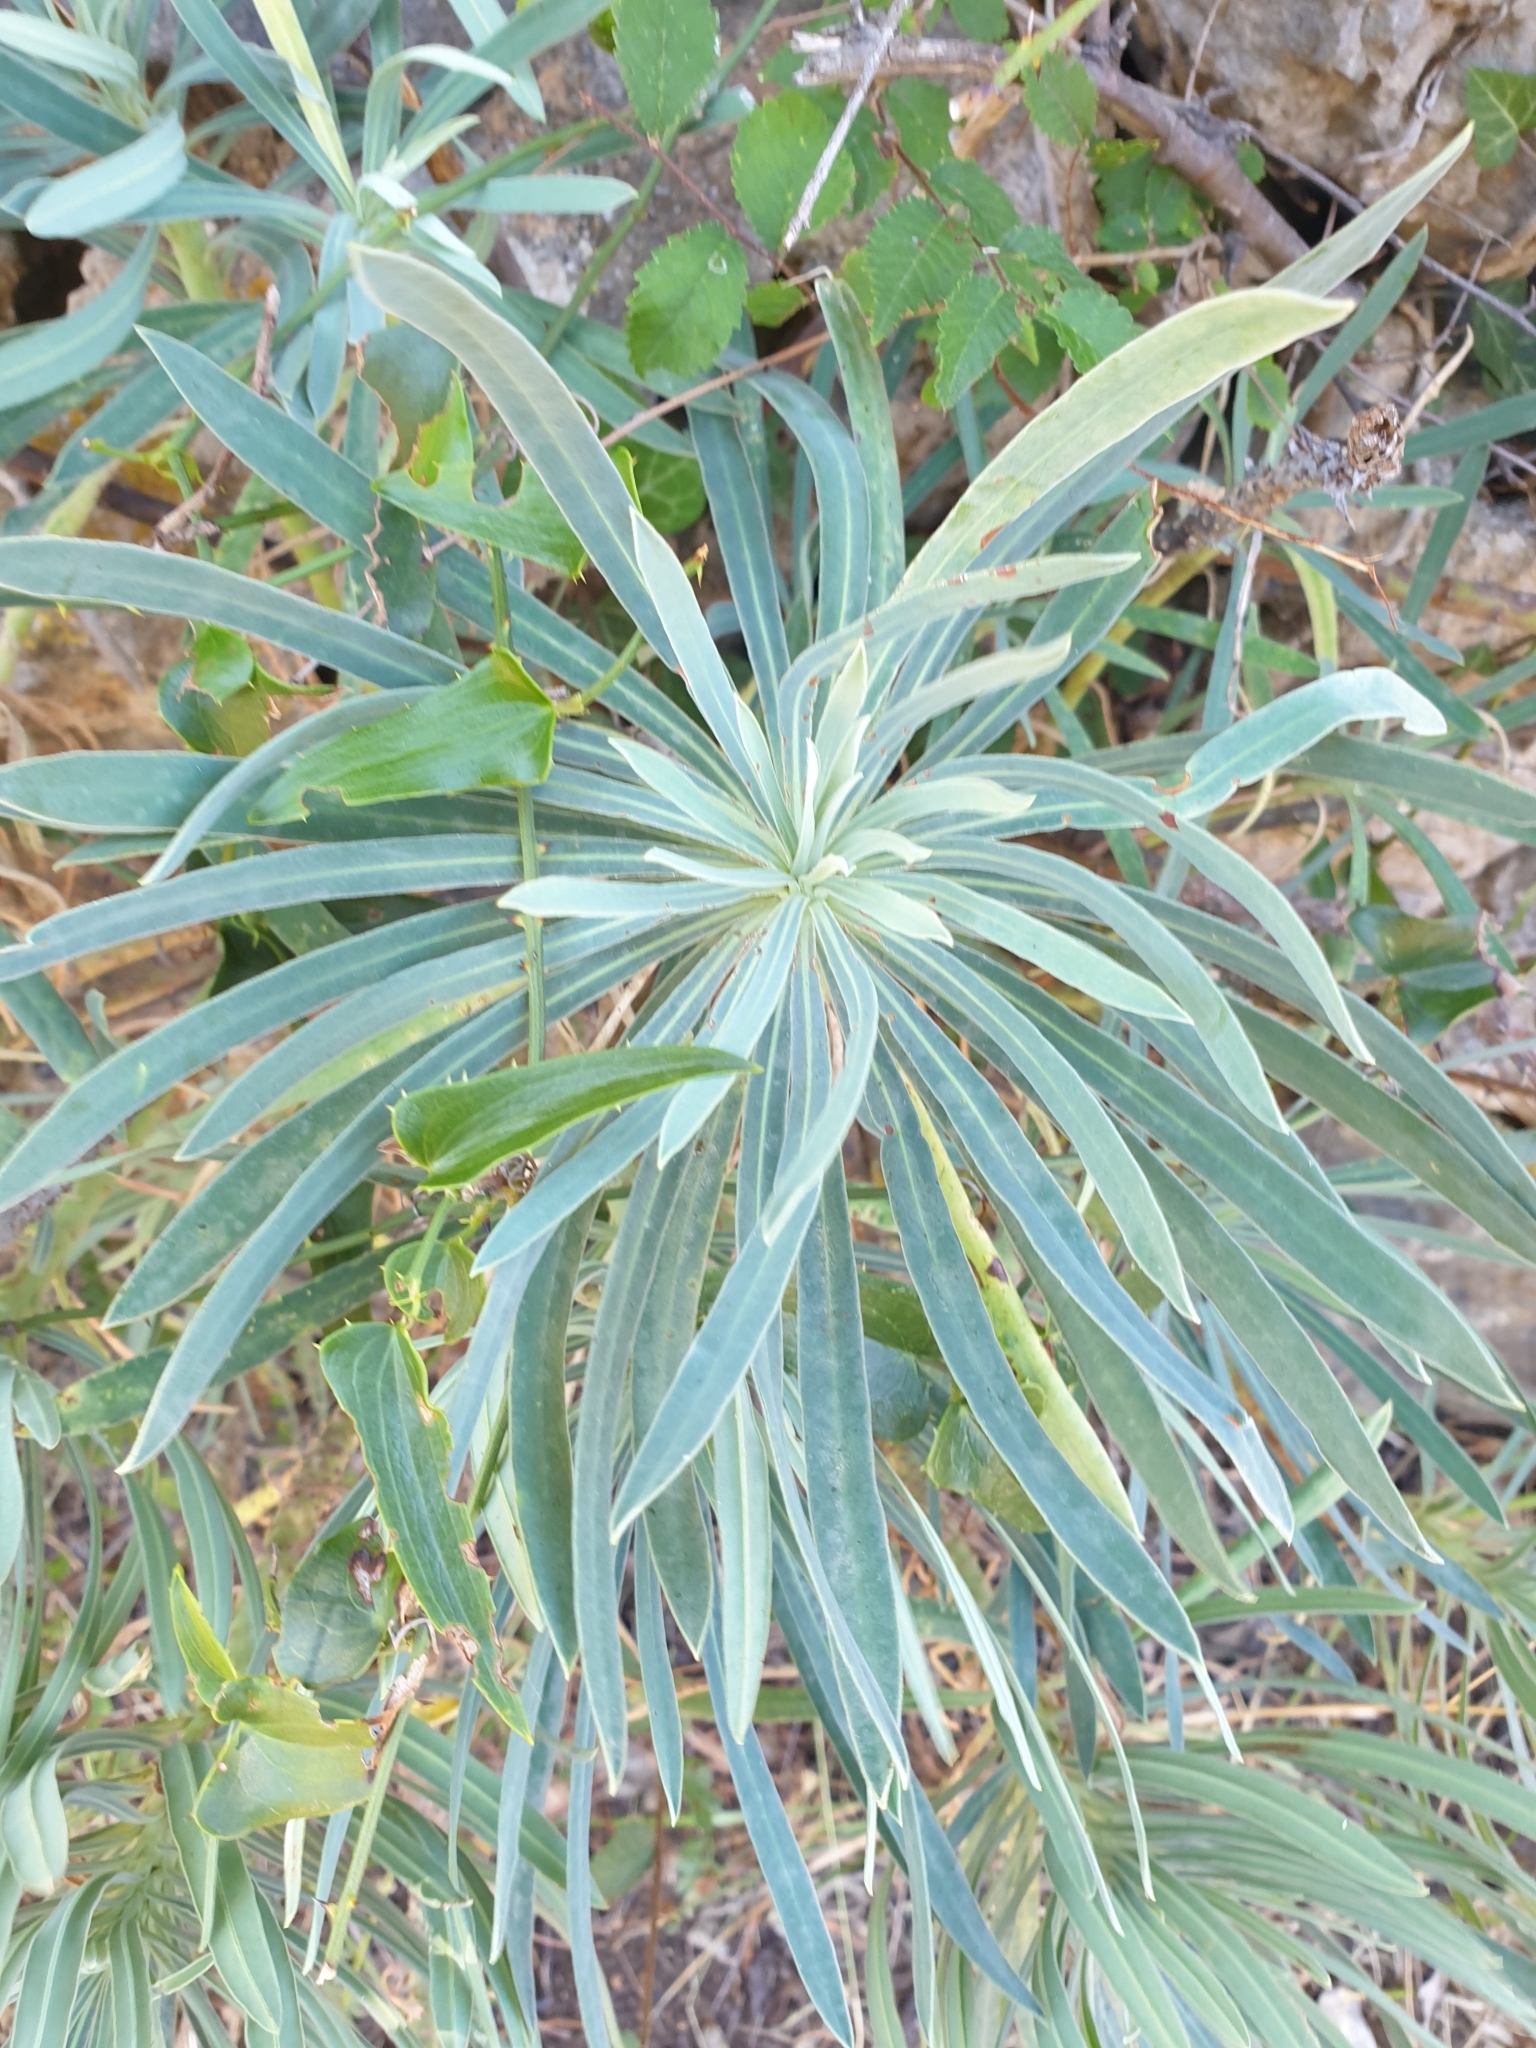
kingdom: Plantae
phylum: Tracheophyta
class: Magnoliopsida
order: Malpighiales
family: Euphorbiaceae
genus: Euphorbia
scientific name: Euphorbia characias
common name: Mediterranean spurge
